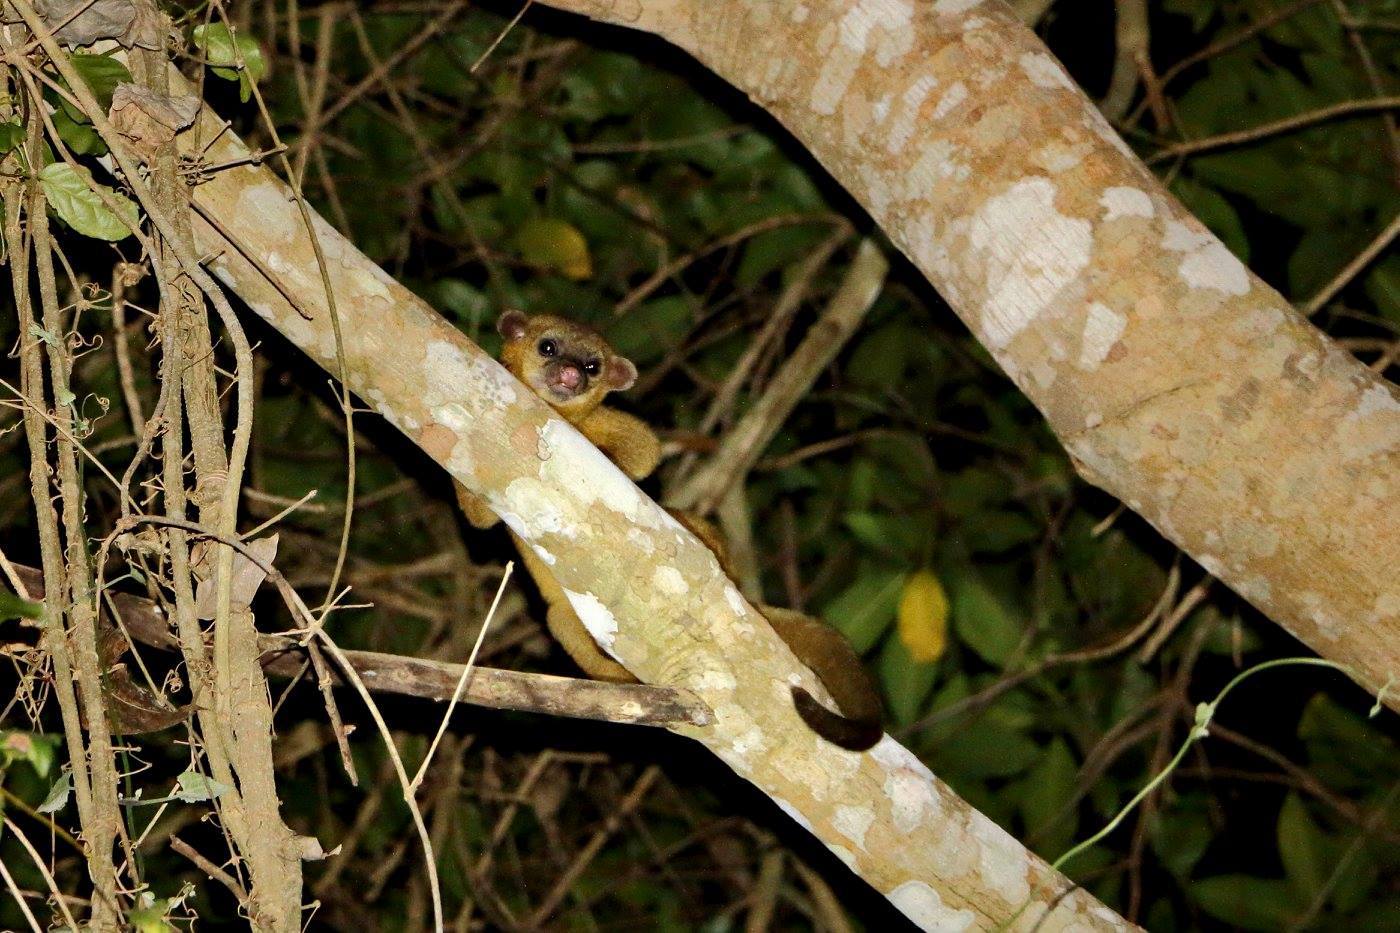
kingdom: Animalia
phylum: Chordata
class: Mammalia
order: Carnivora
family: Procyonidae
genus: Potos
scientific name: Potos flavus
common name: Kinkajou
